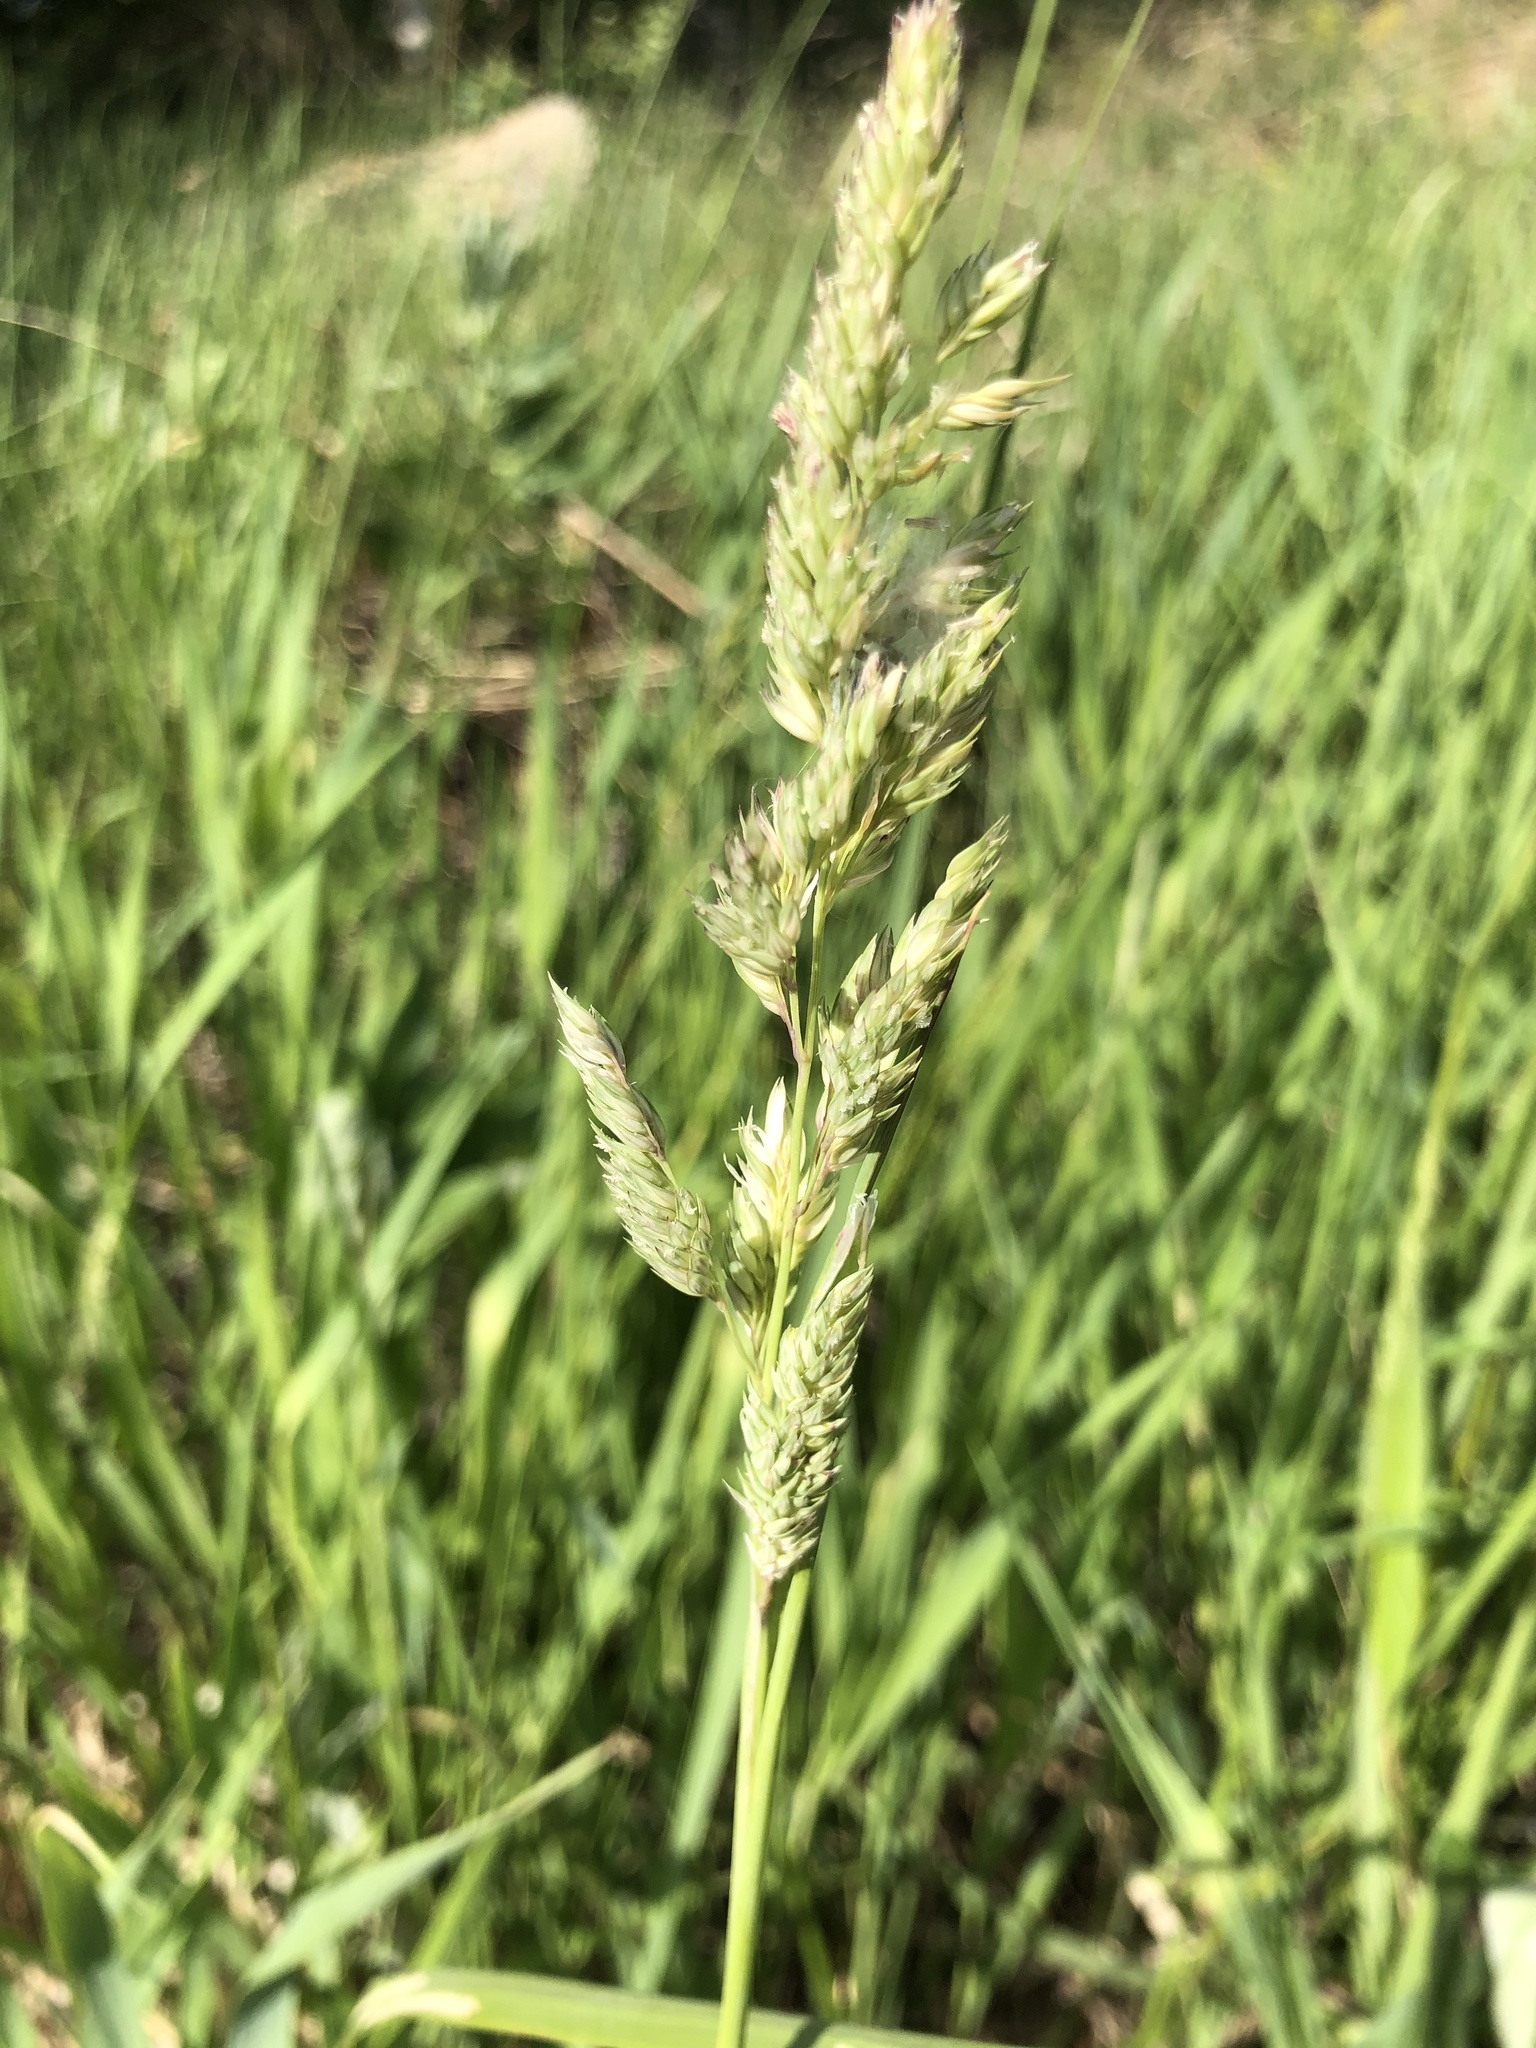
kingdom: Plantae
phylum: Tracheophyta
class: Liliopsida
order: Poales
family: Poaceae
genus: Phalaris
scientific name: Phalaris arundinacea
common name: Reed canary-grass
